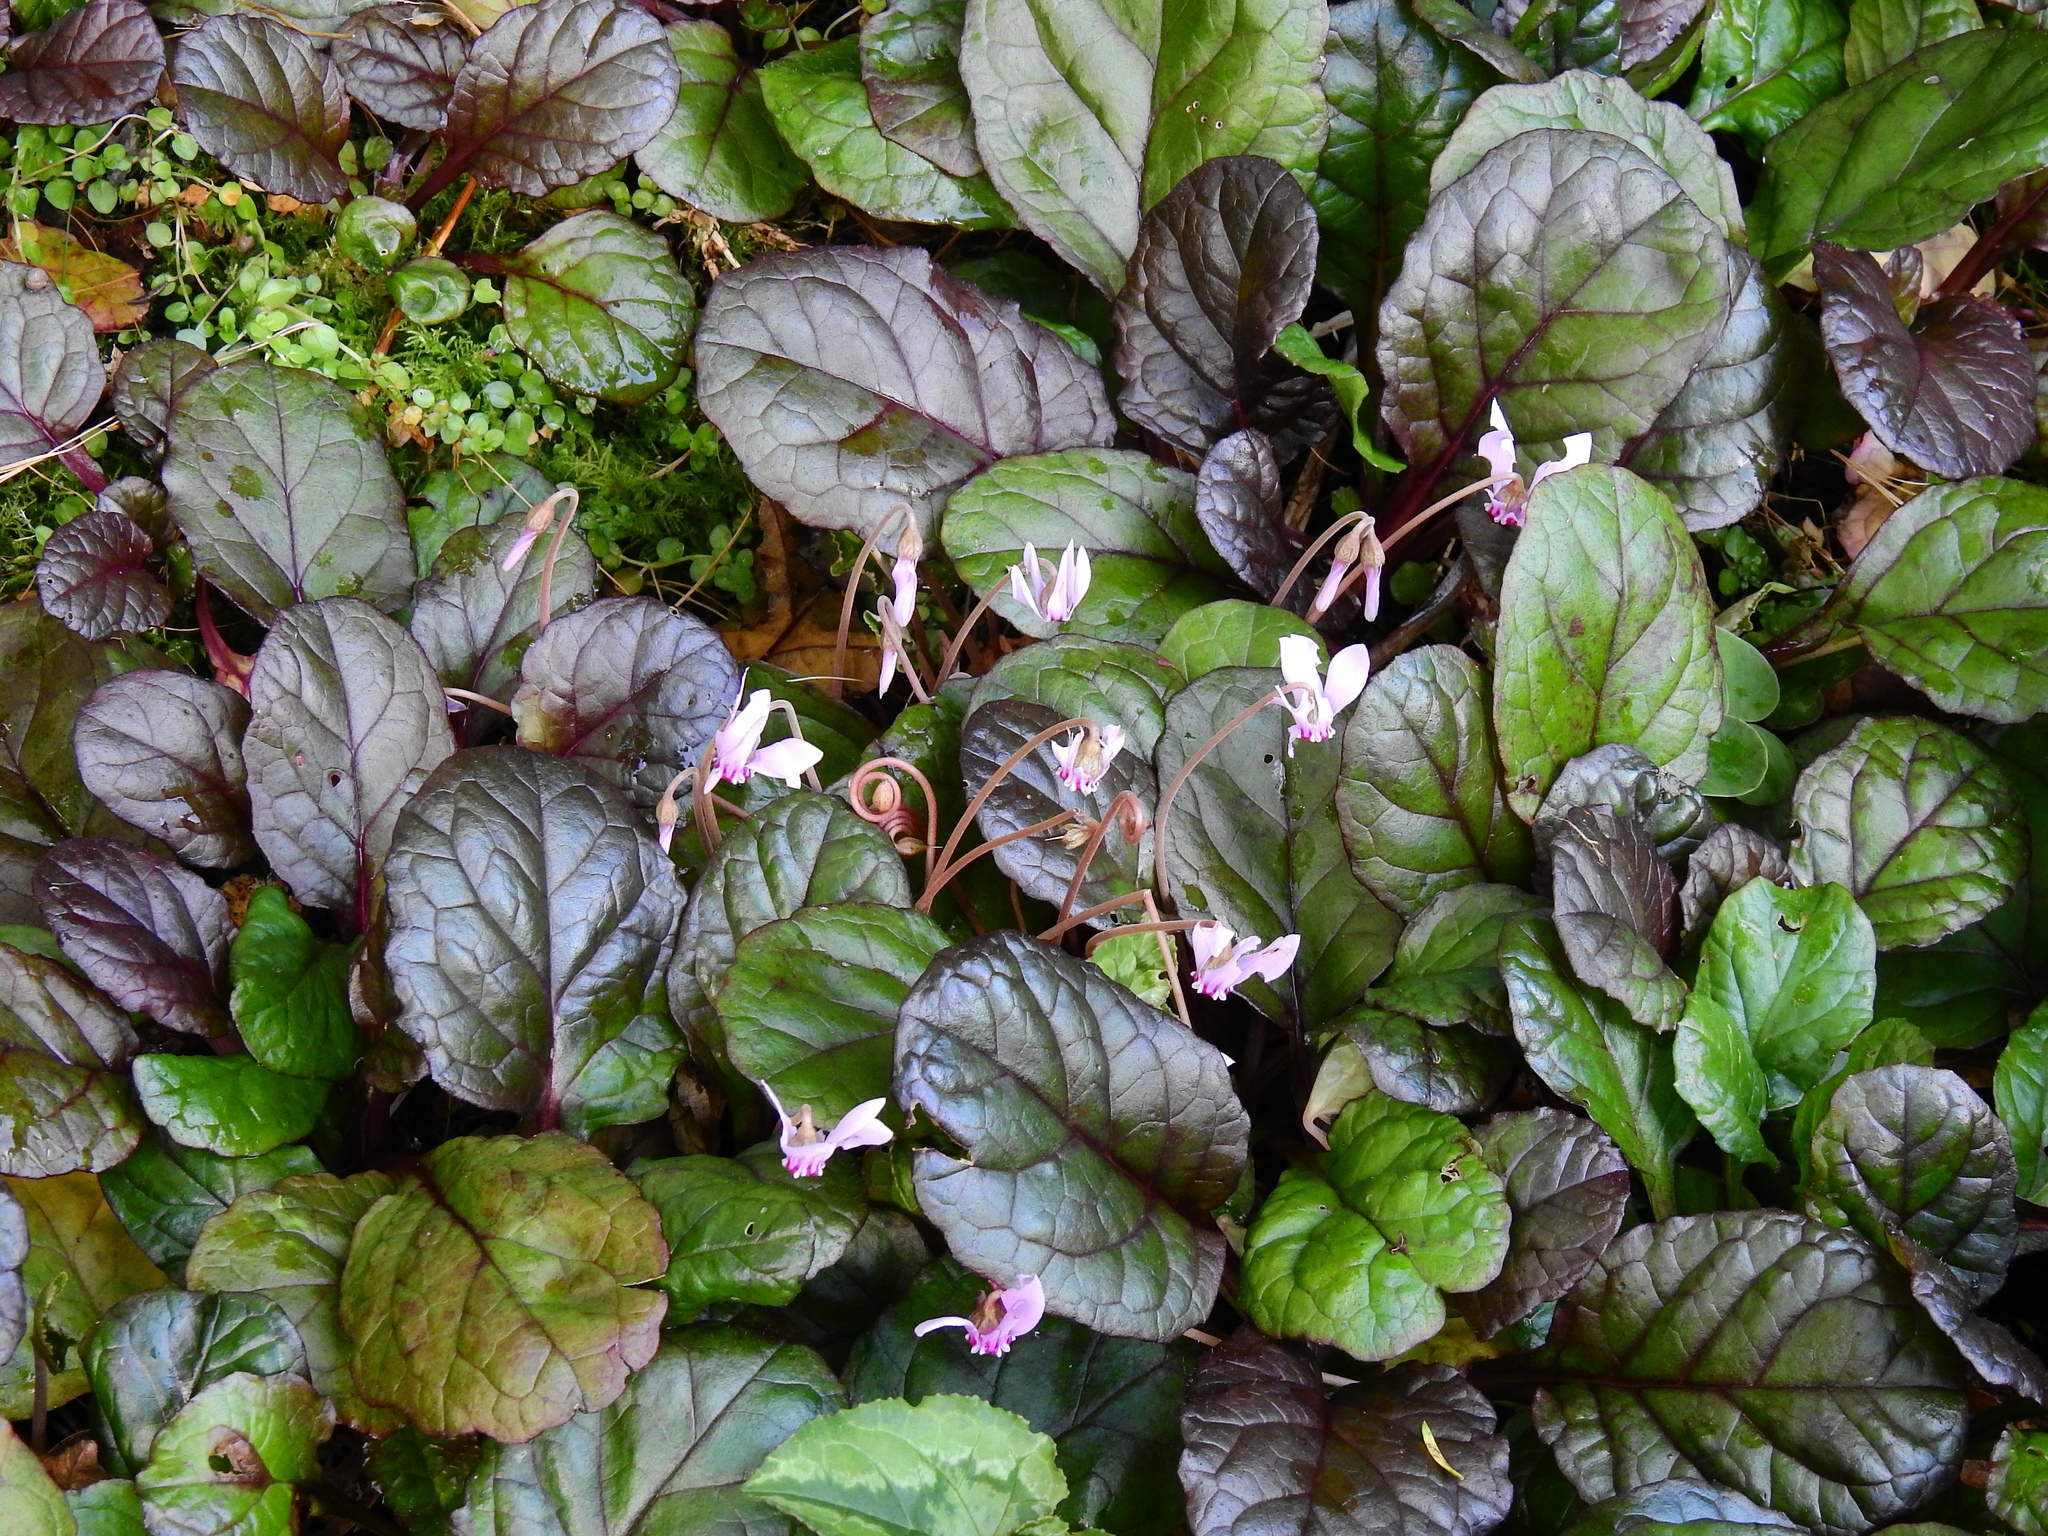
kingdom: Plantae
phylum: Tracheophyta
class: Magnoliopsida
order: Ericales
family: Primulaceae
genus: Cyclamen
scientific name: Cyclamen hederifolium
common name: Sowbread
